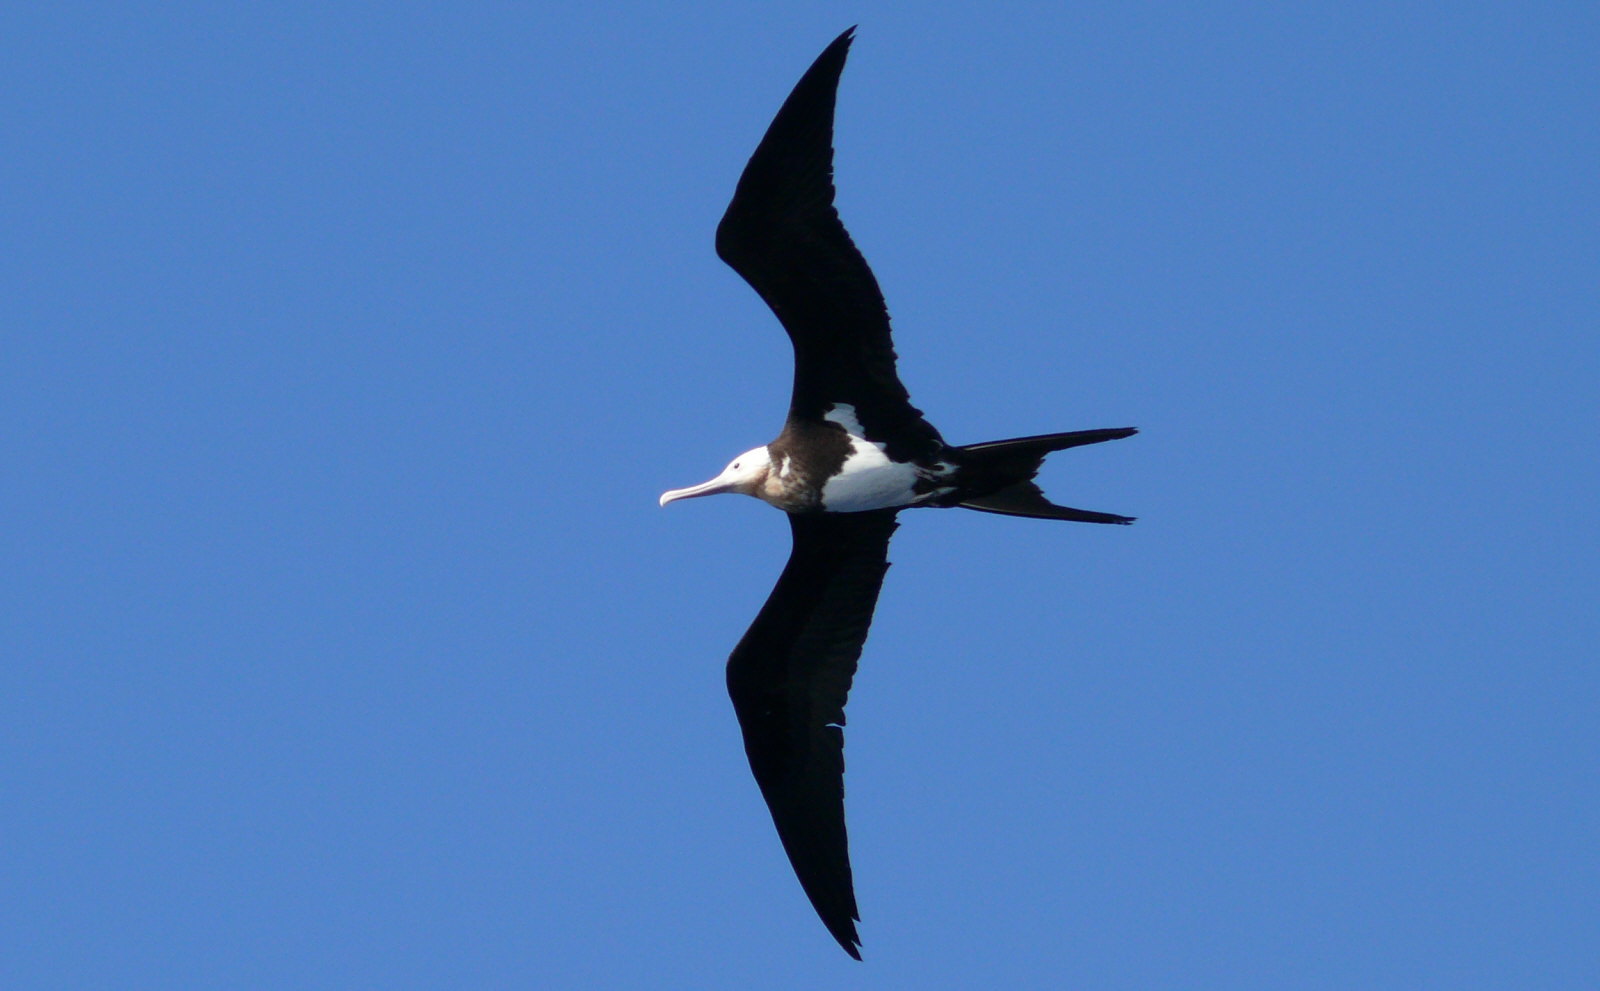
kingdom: Animalia
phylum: Chordata
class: Aves
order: Suliformes
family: Fregatidae
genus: Fregata
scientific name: Fregata minor
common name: Great frigatebird
